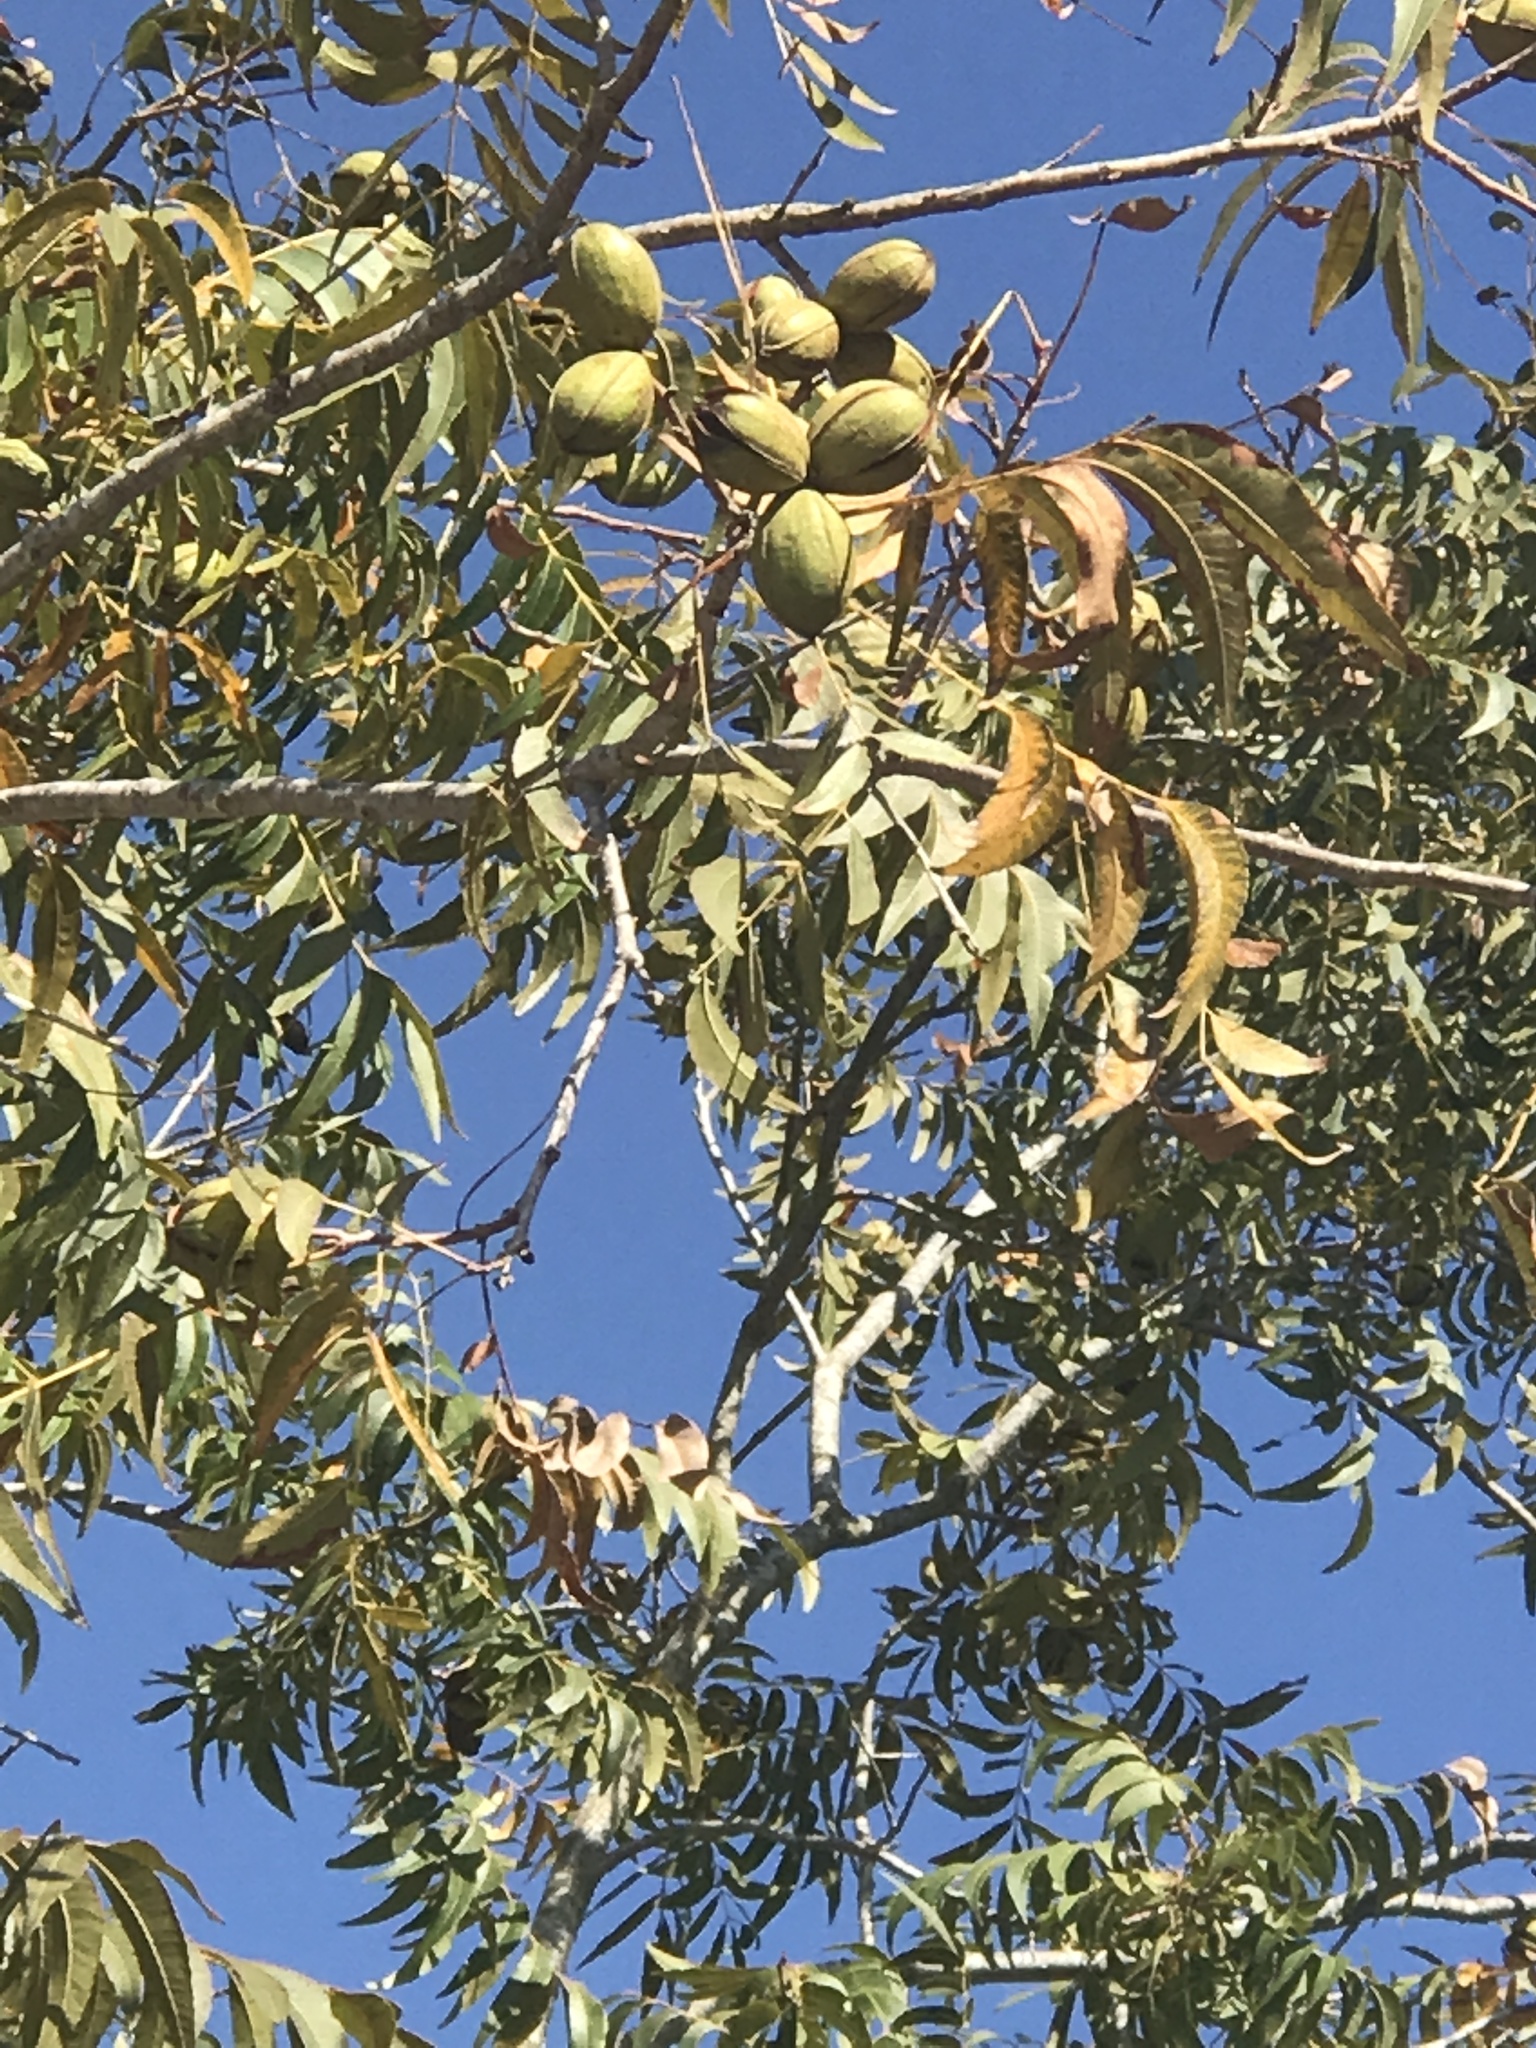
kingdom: Plantae
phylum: Tracheophyta
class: Magnoliopsida
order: Fagales
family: Juglandaceae
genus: Carya
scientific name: Carya illinoinensis
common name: Pecan
